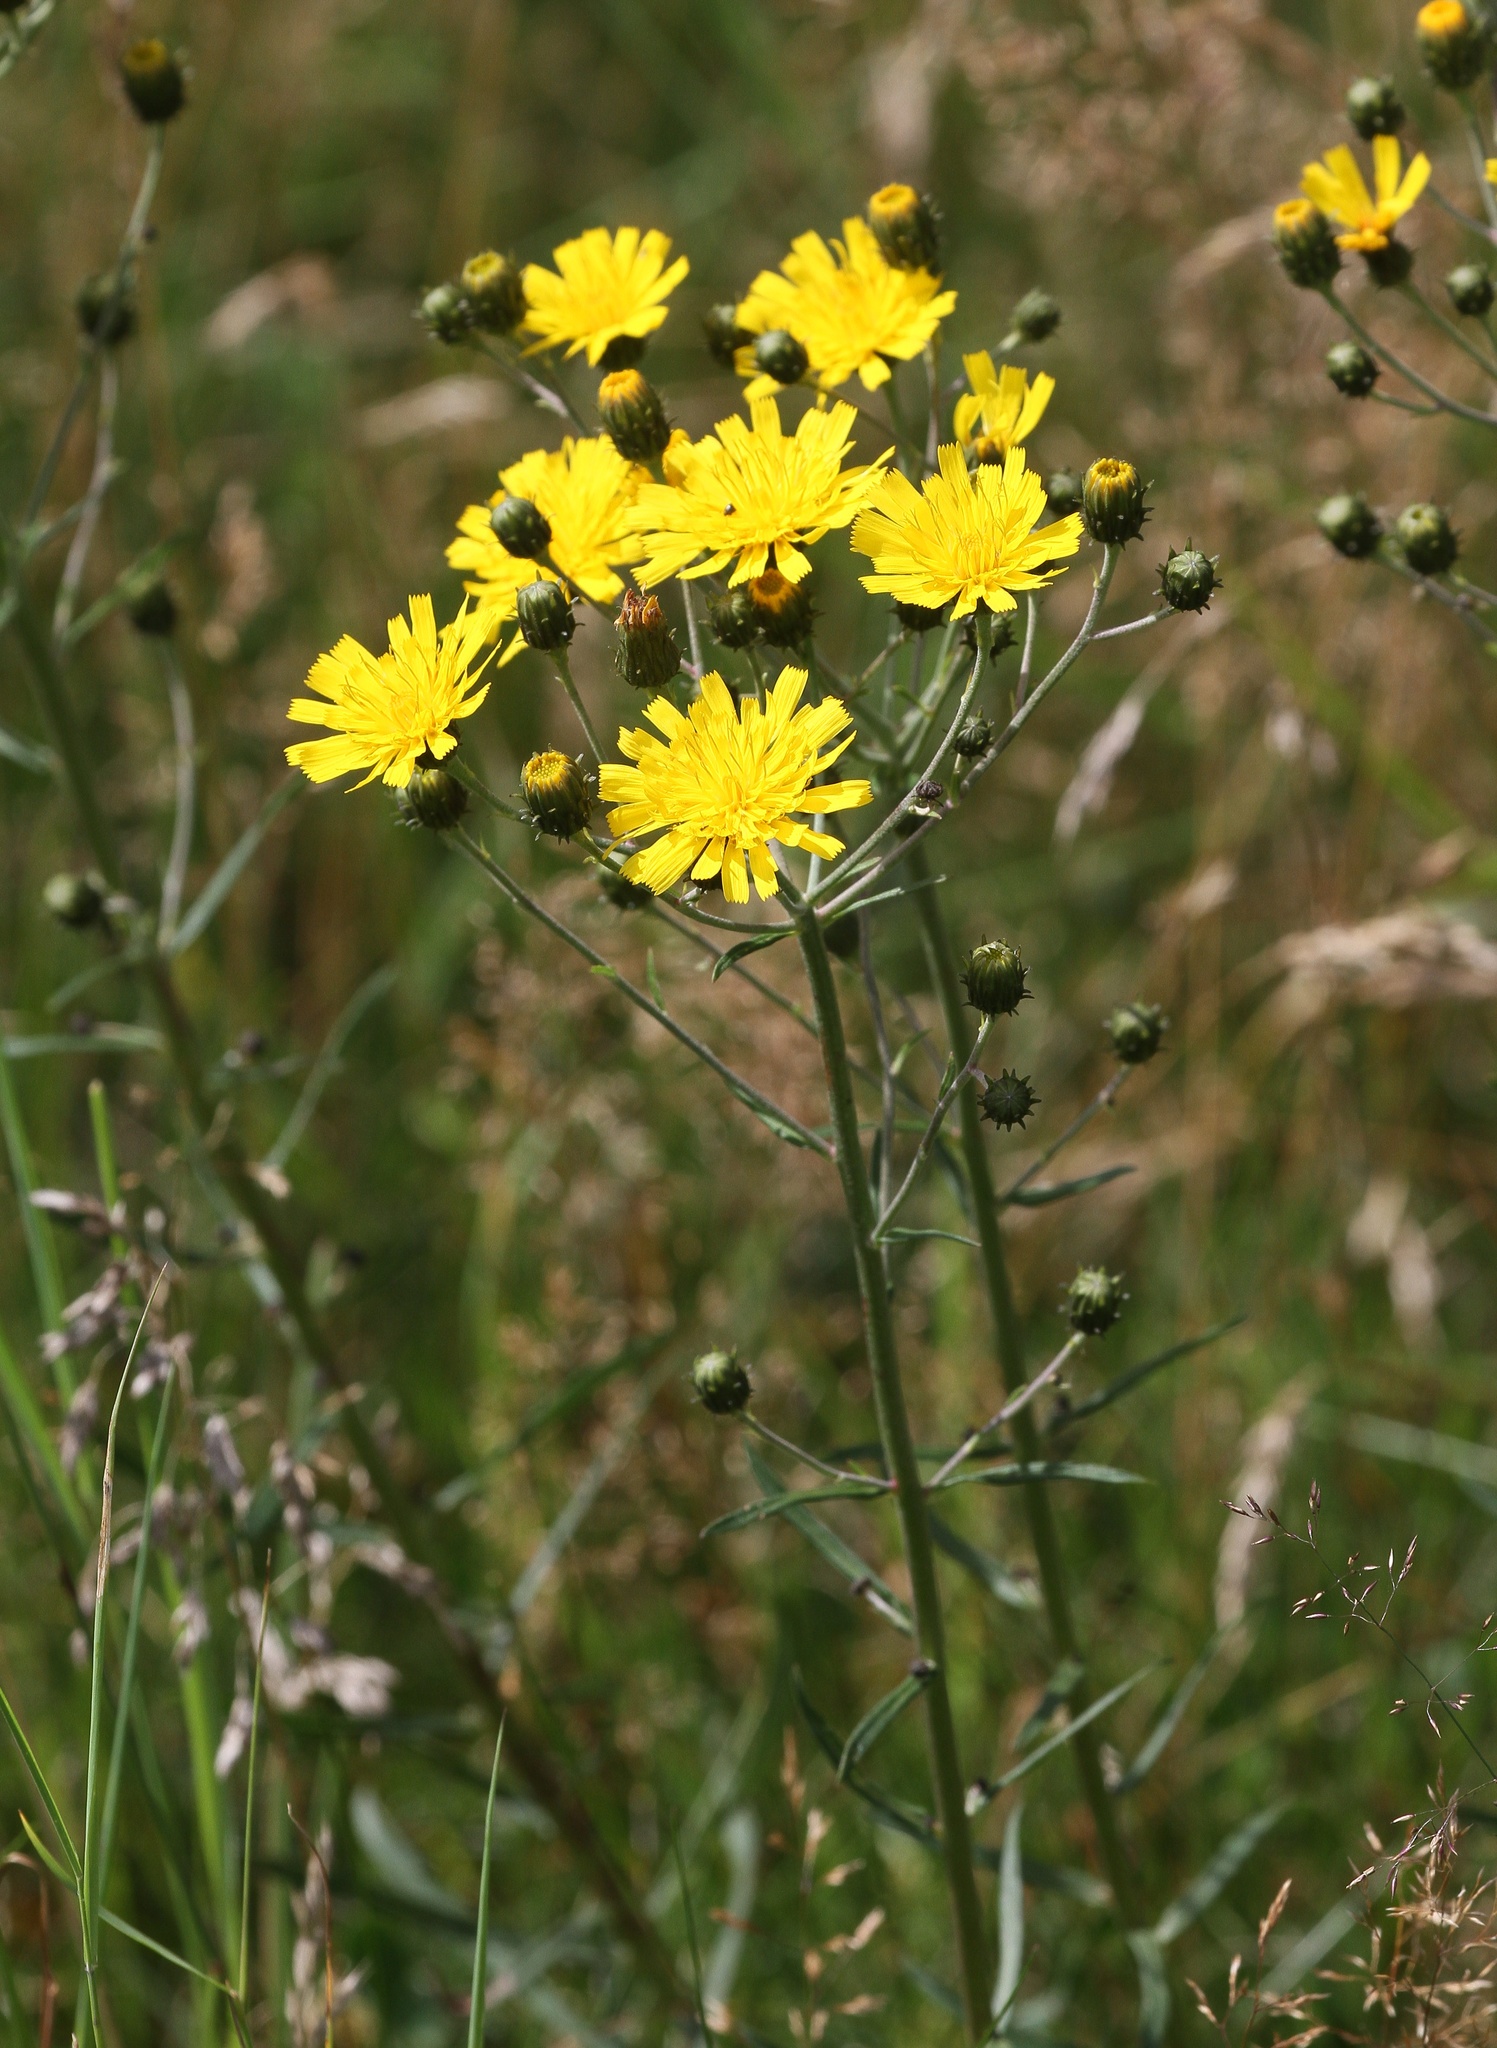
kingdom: Plantae
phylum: Tracheophyta
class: Magnoliopsida
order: Asterales
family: Asteraceae
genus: Hieracium
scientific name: Hieracium umbellatum
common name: Northern hawkweed
